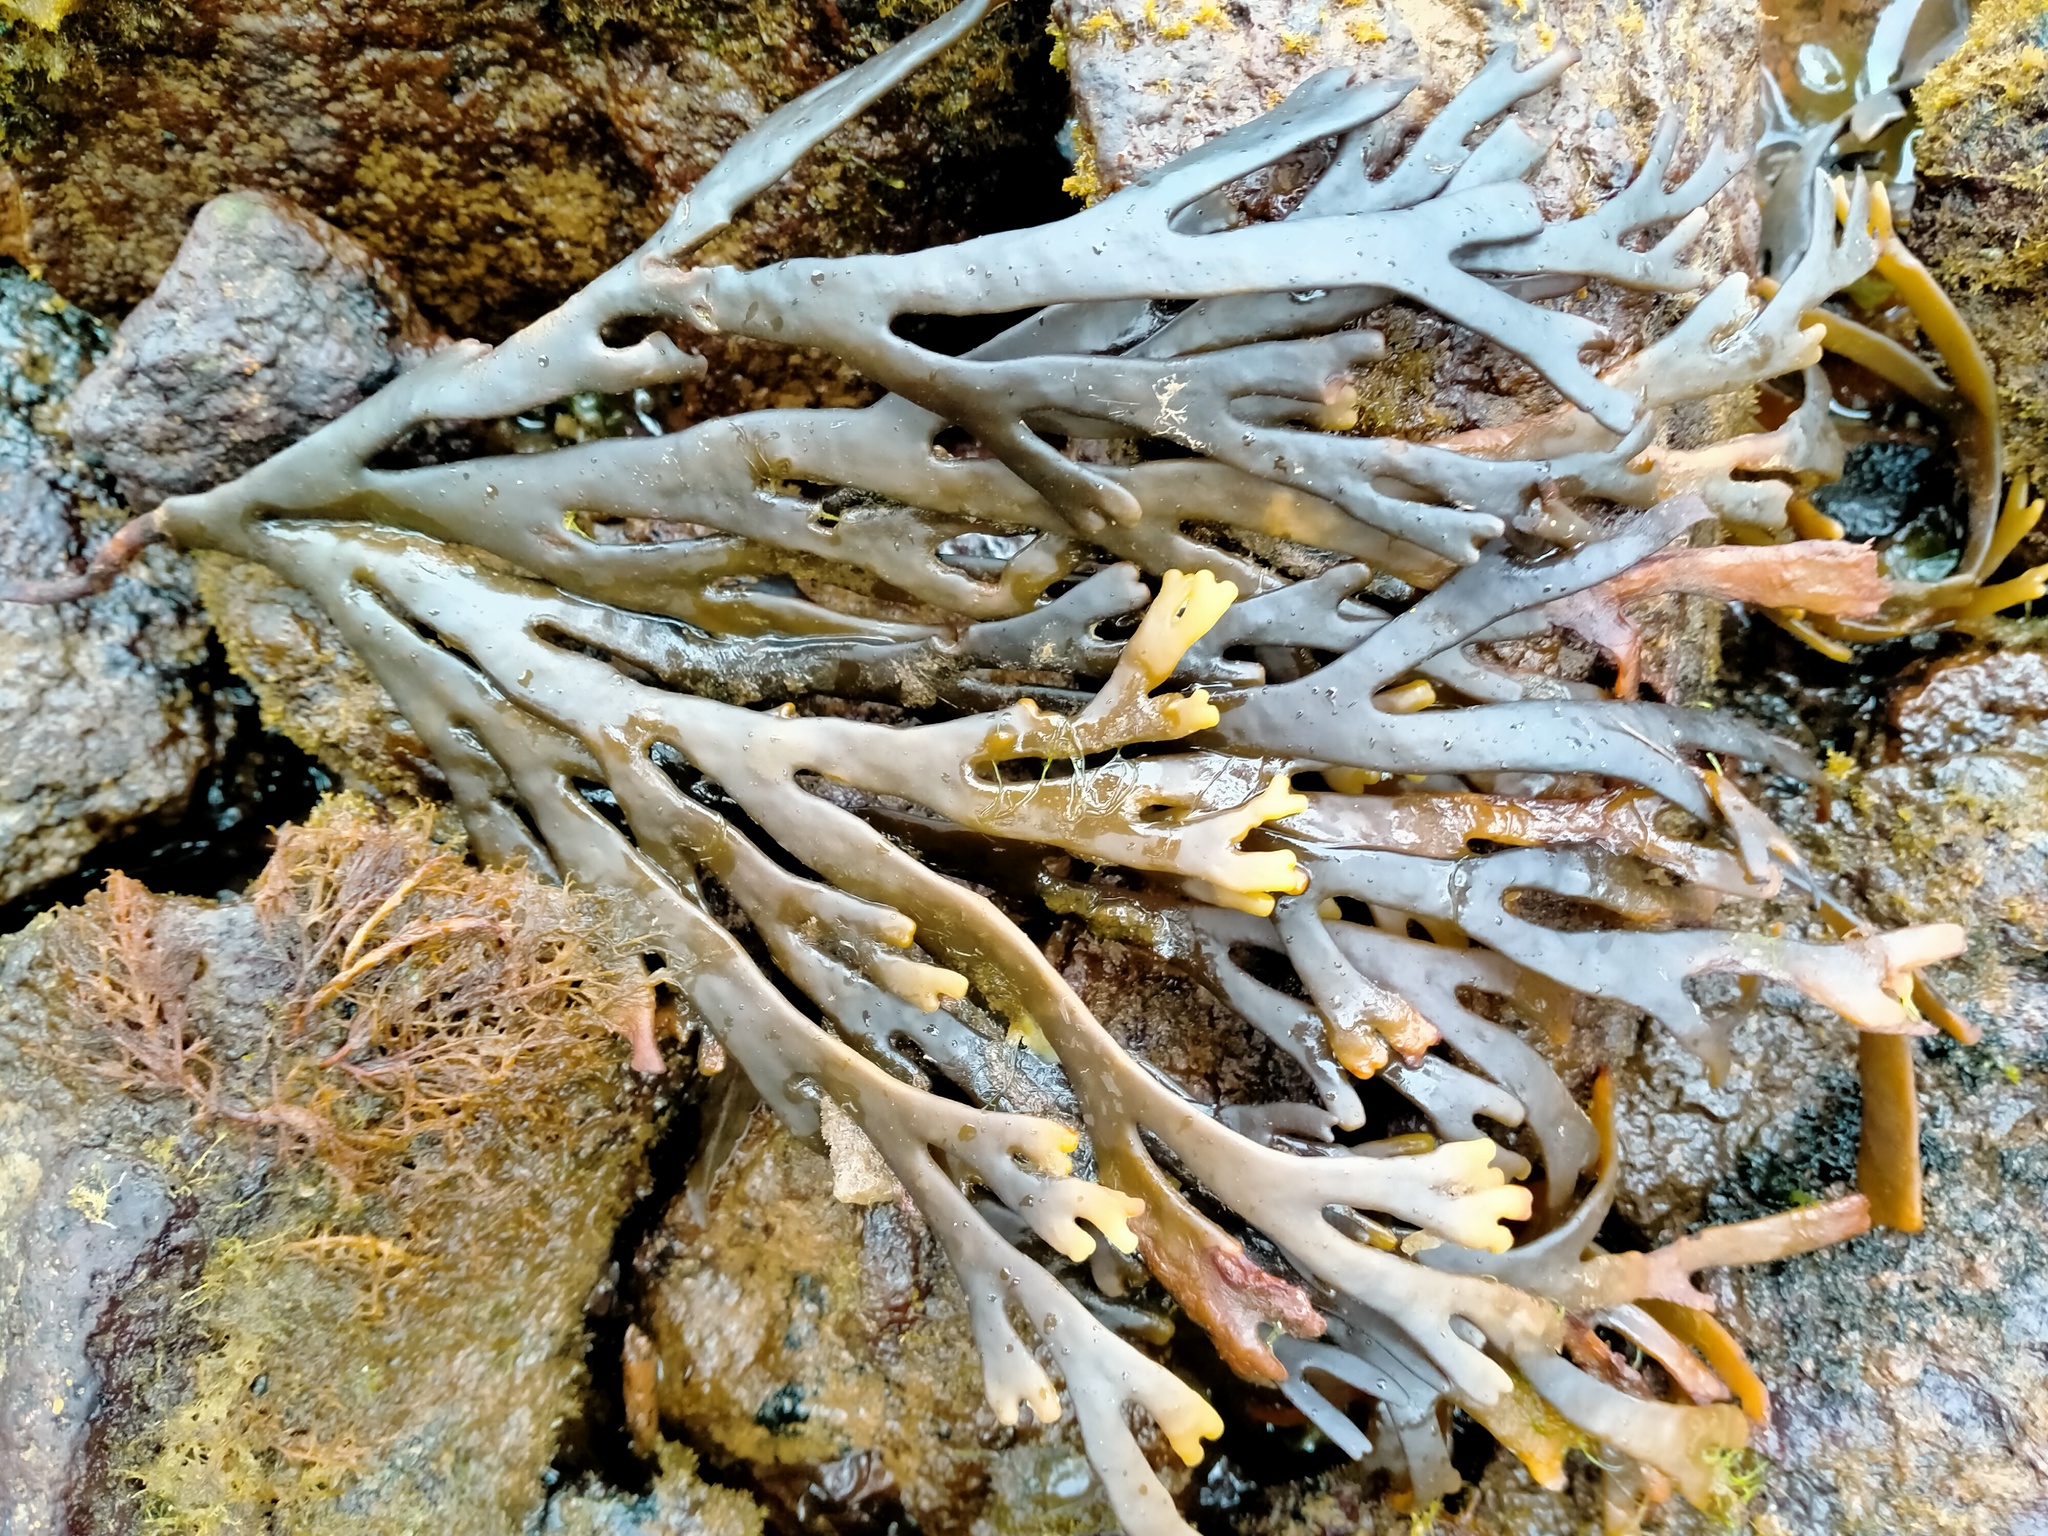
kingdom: Chromista
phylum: Ochrophyta
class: Phaeophyceae
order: Fucales
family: Xiphophoraceae
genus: Xiphophora
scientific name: Xiphophora gladiata
